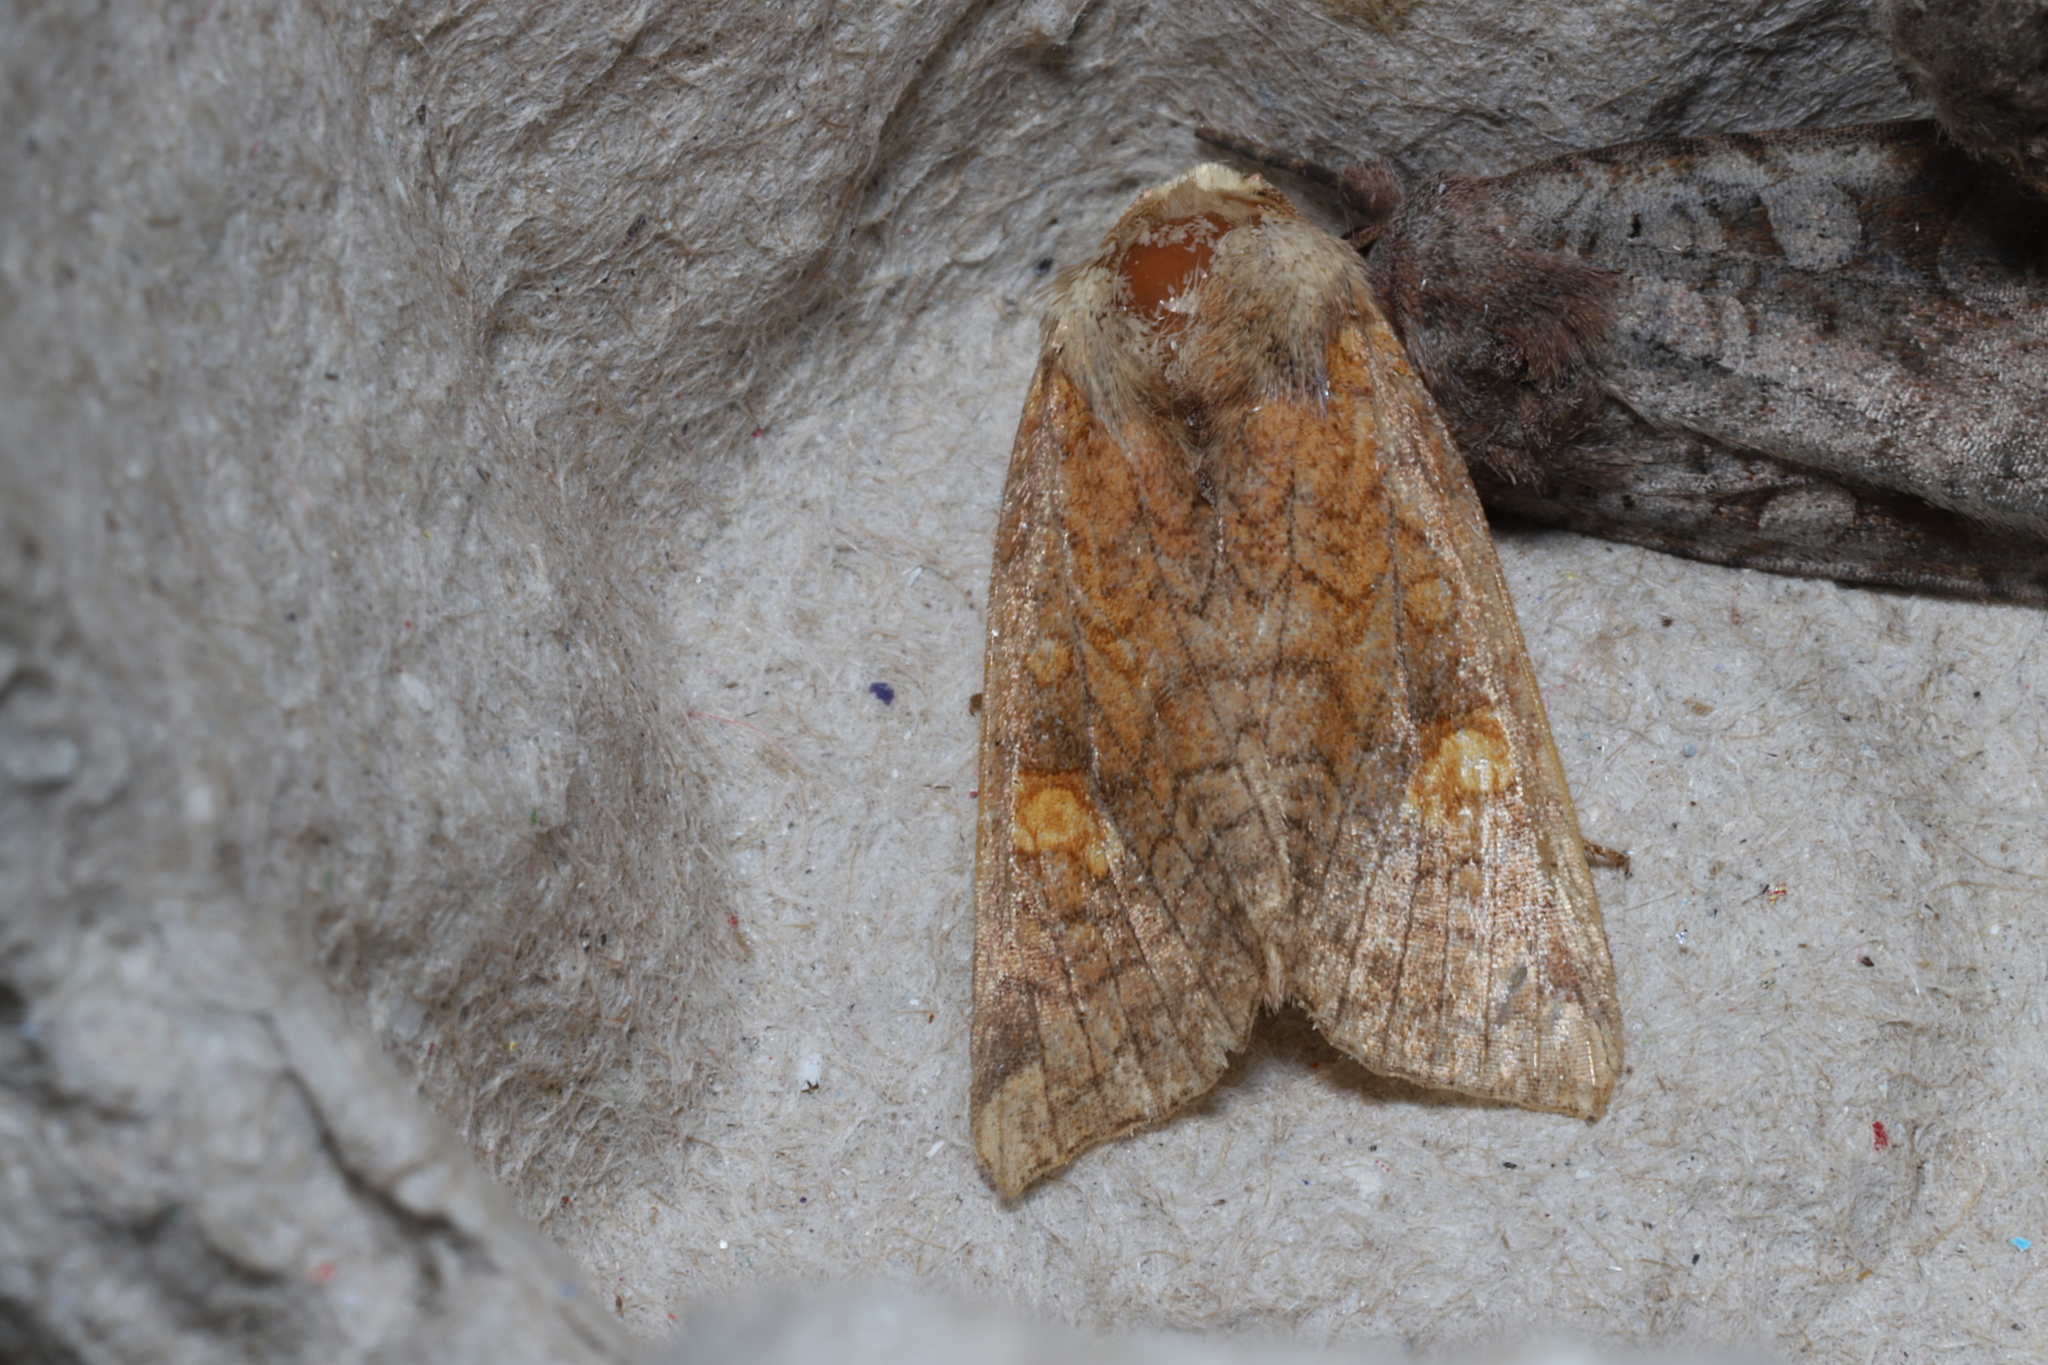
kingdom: Animalia
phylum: Arthropoda
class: Insecta
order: Lepidoptera
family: Noctuidae
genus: Amphipoea
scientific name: Amphipoea americana
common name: American ear moth
